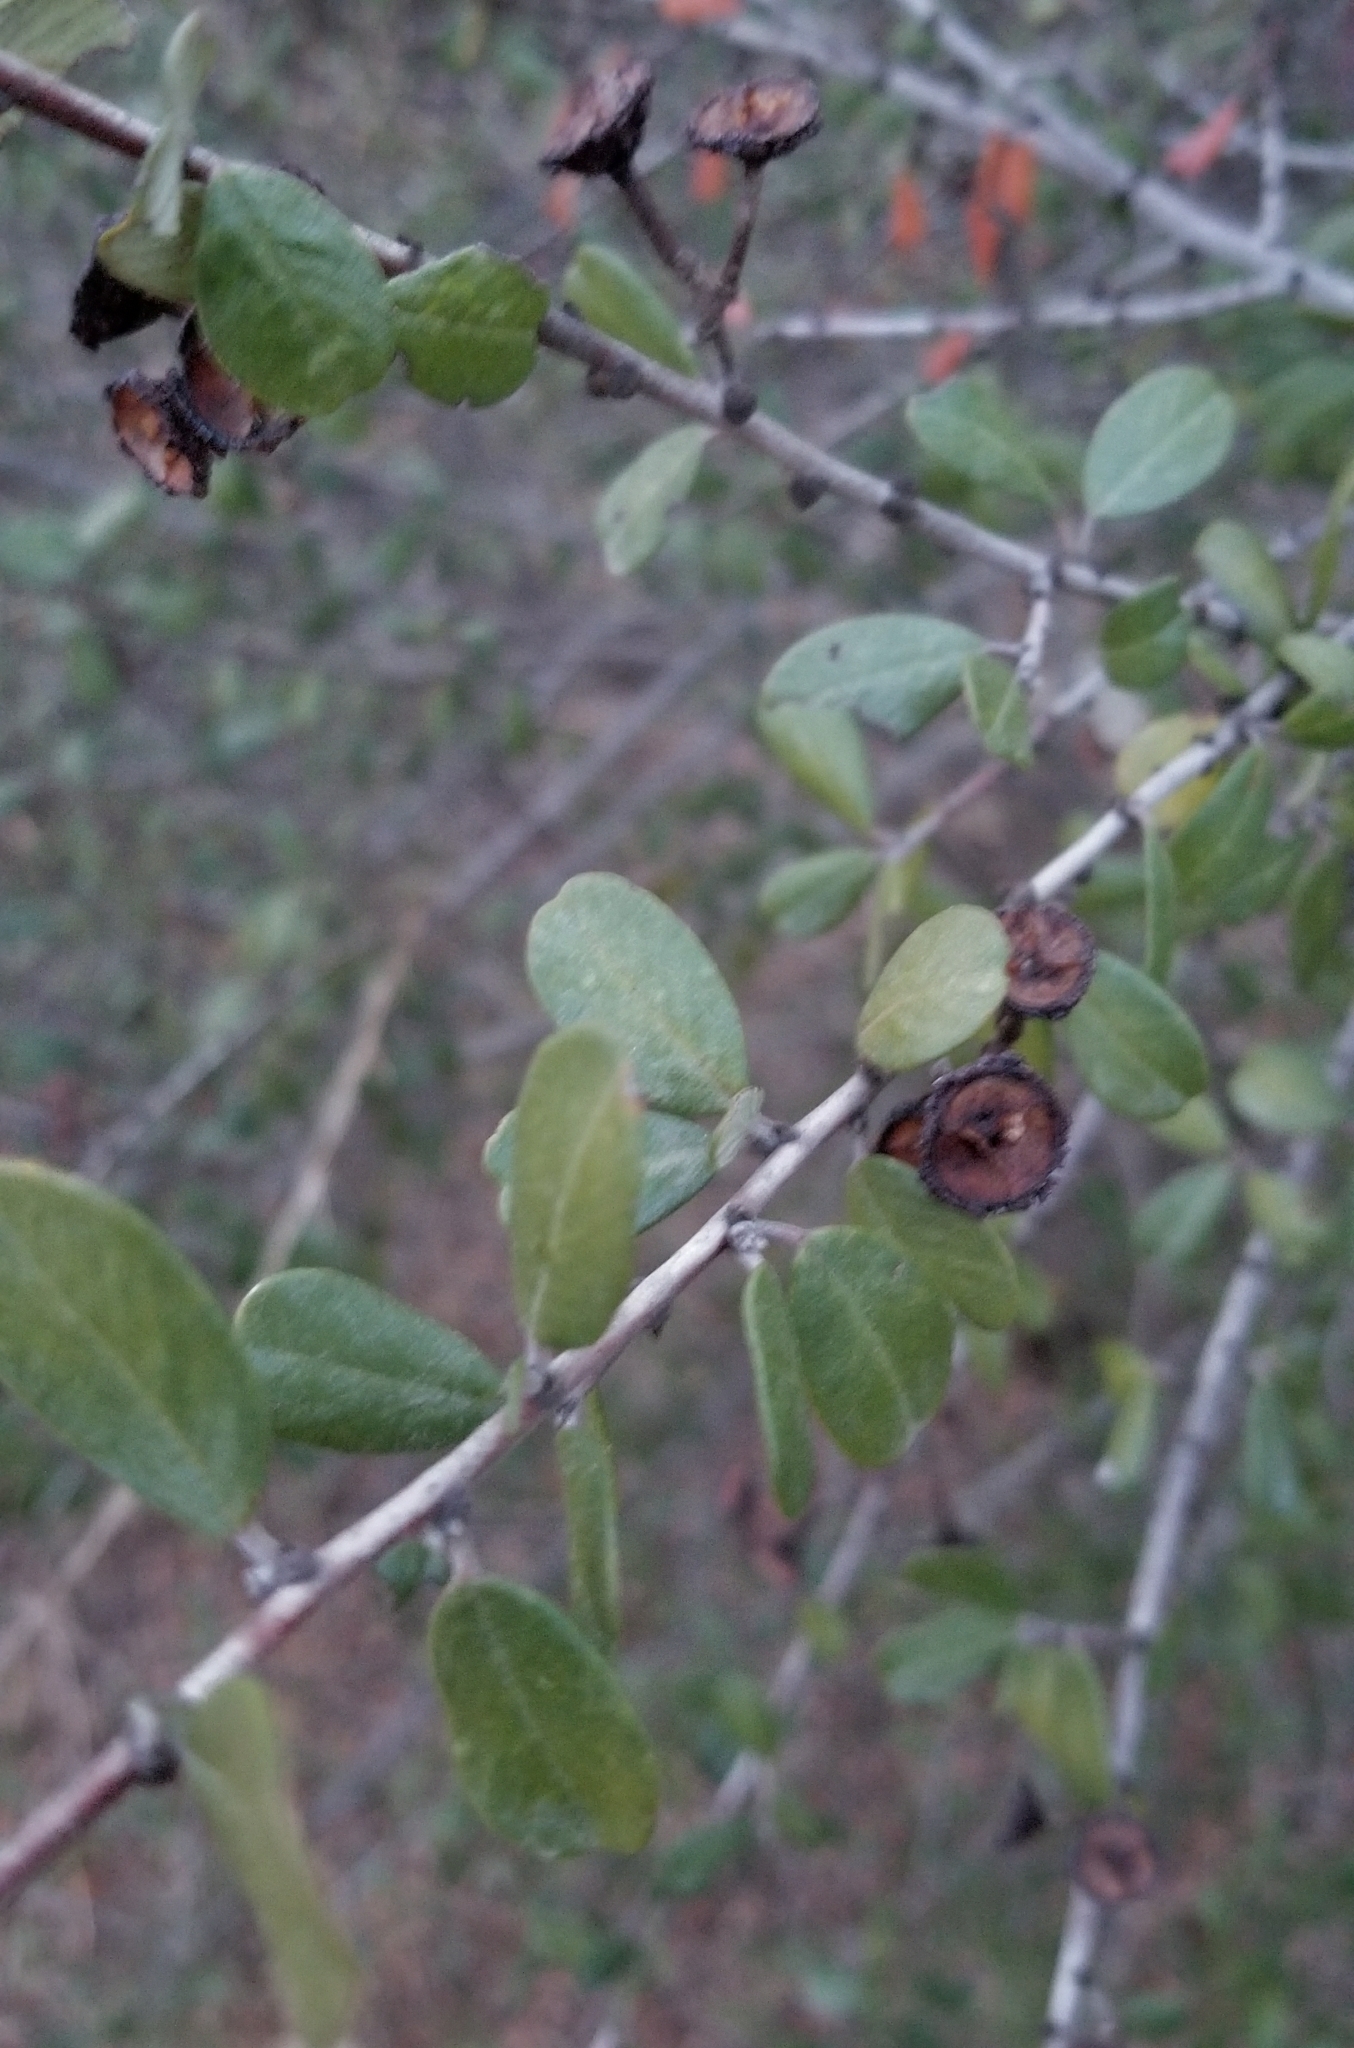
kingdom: Plantae
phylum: Tracheophyta
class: Magnoliopsida
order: Rosales
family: Rhamnaceae
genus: Ceanothus
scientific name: Ceanothus megacarpus
